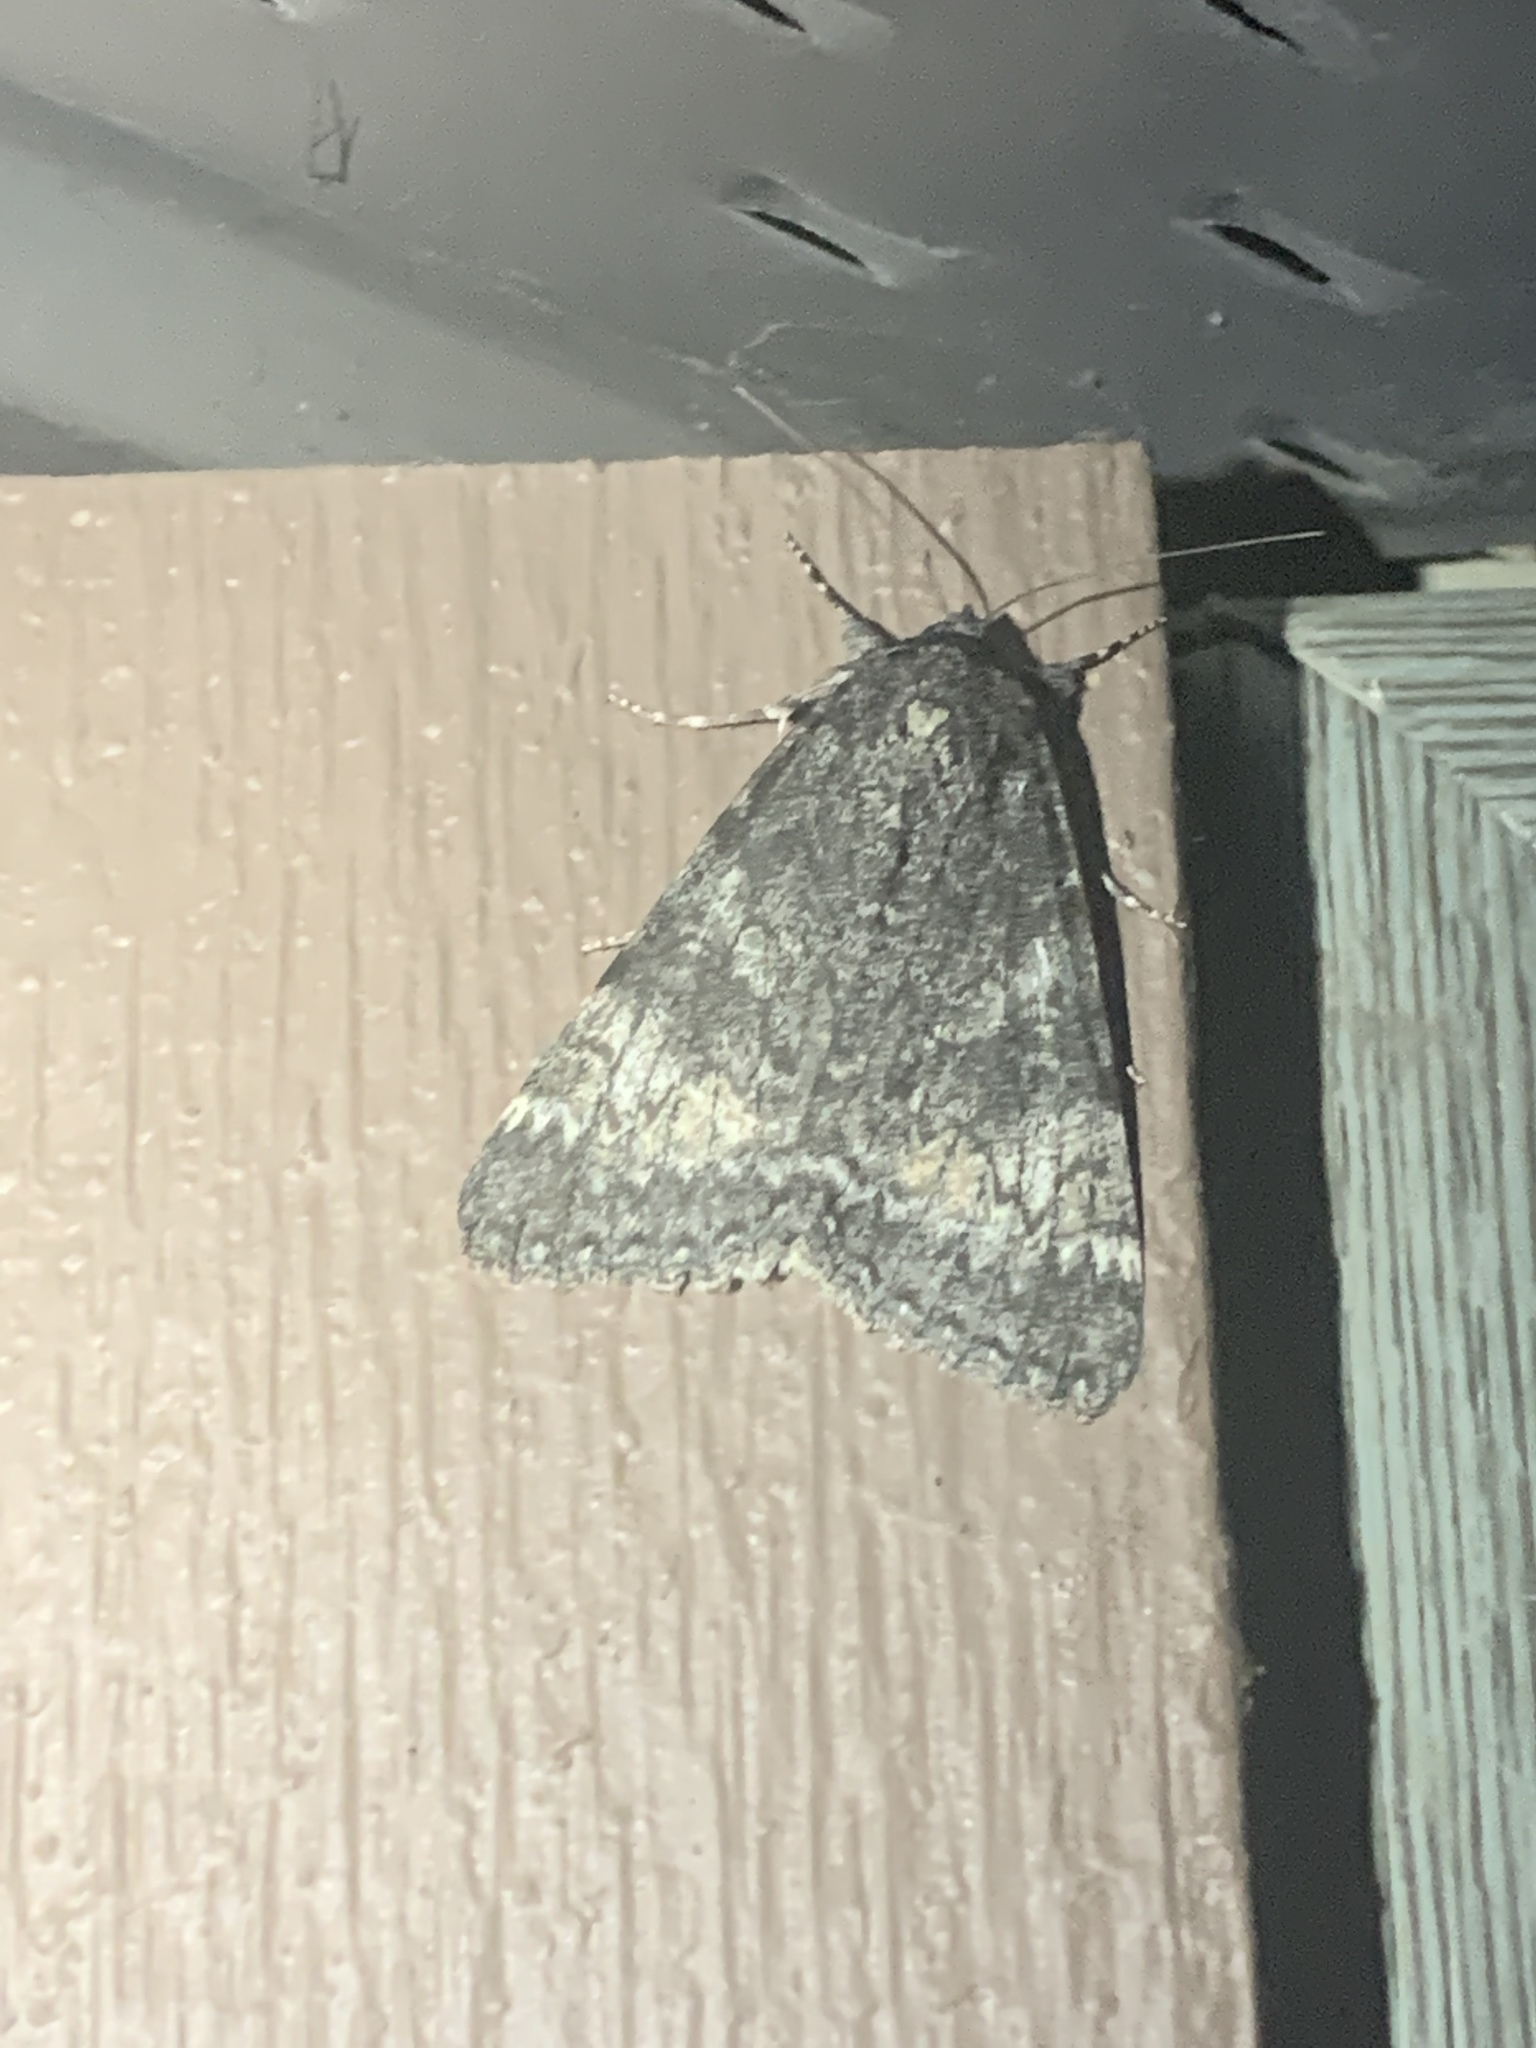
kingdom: Animalia
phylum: Arthropoda
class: Insecta
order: Lepidoptera
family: Erebidae
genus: Catocala
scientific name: Catocala briseis
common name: Briseis underwing
